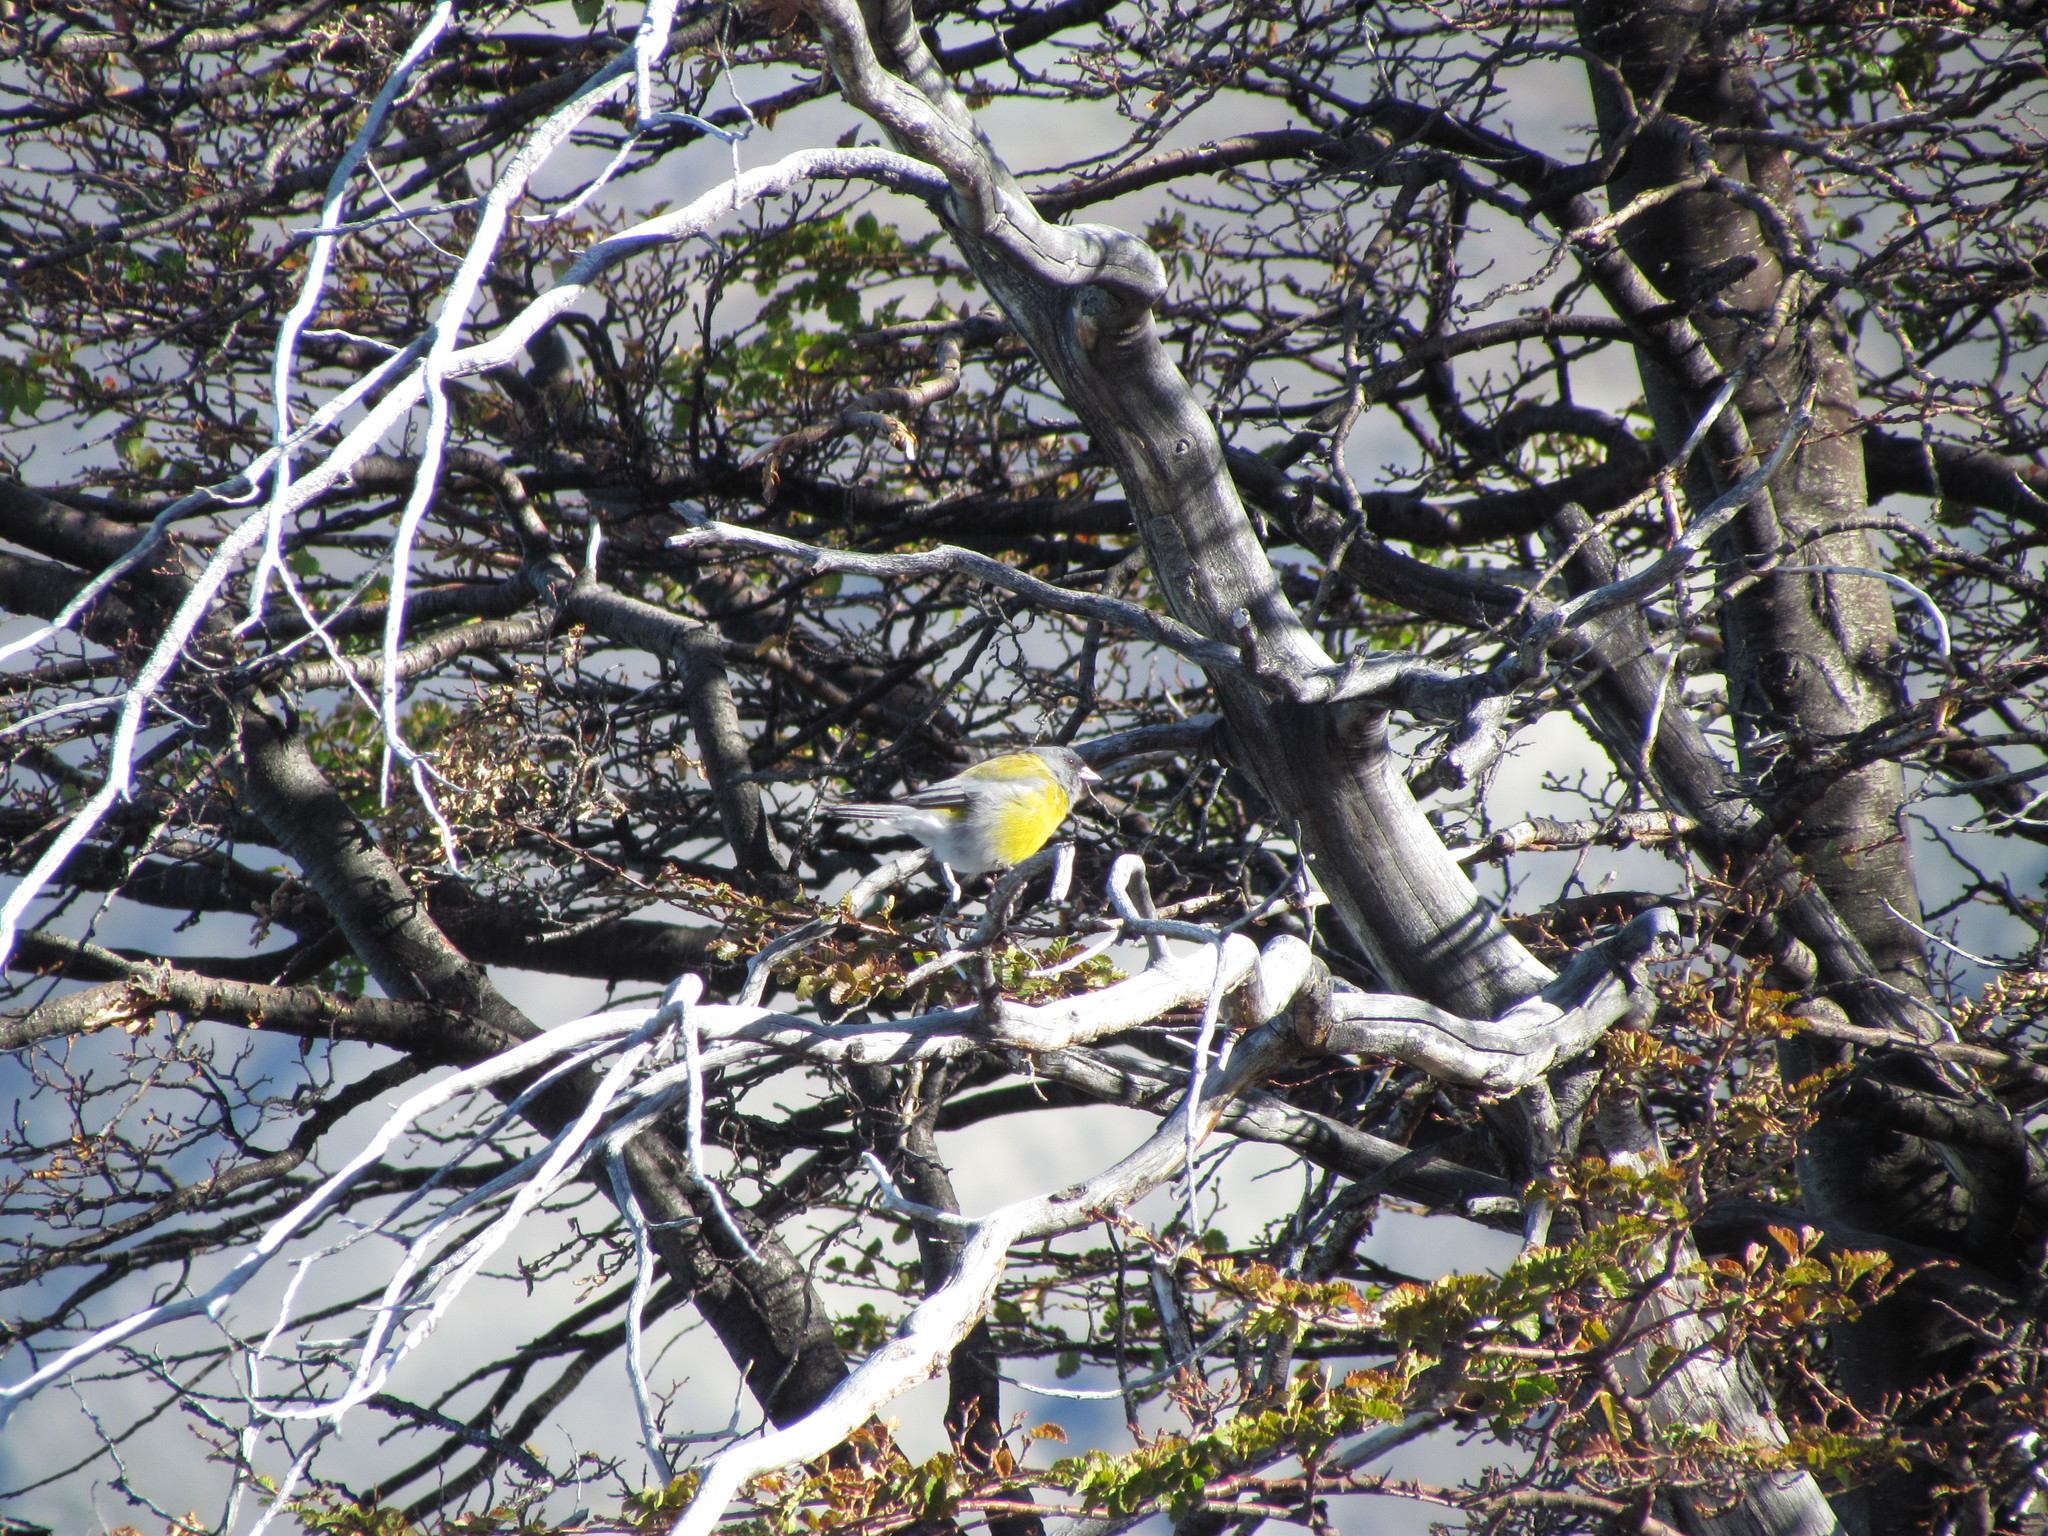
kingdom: Animalia
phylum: Chordata
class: Aves
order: Passeriformes
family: Thraupidae
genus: Phrygilus
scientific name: Phrygilus patagonicus
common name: Patagonian sierra finch
